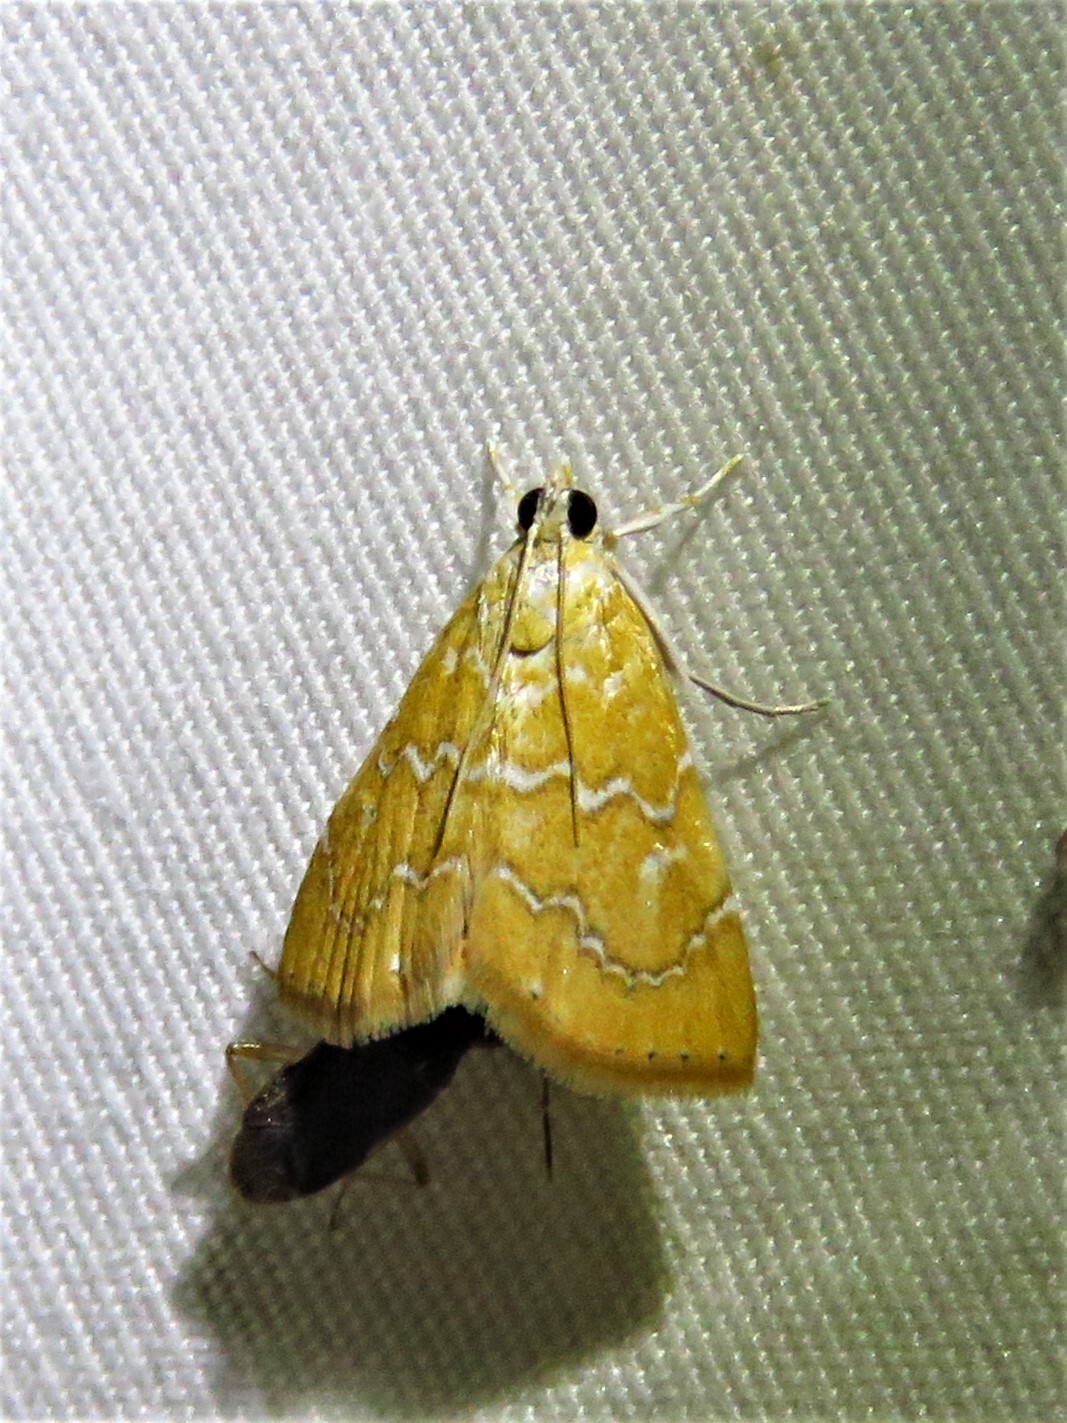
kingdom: Animalia
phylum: Arthropoda
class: Insecta
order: Lepidoptera
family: Crambidae
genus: Glaphyria
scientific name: Glaphyria sesquistrialis
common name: White-roped glaphyria
